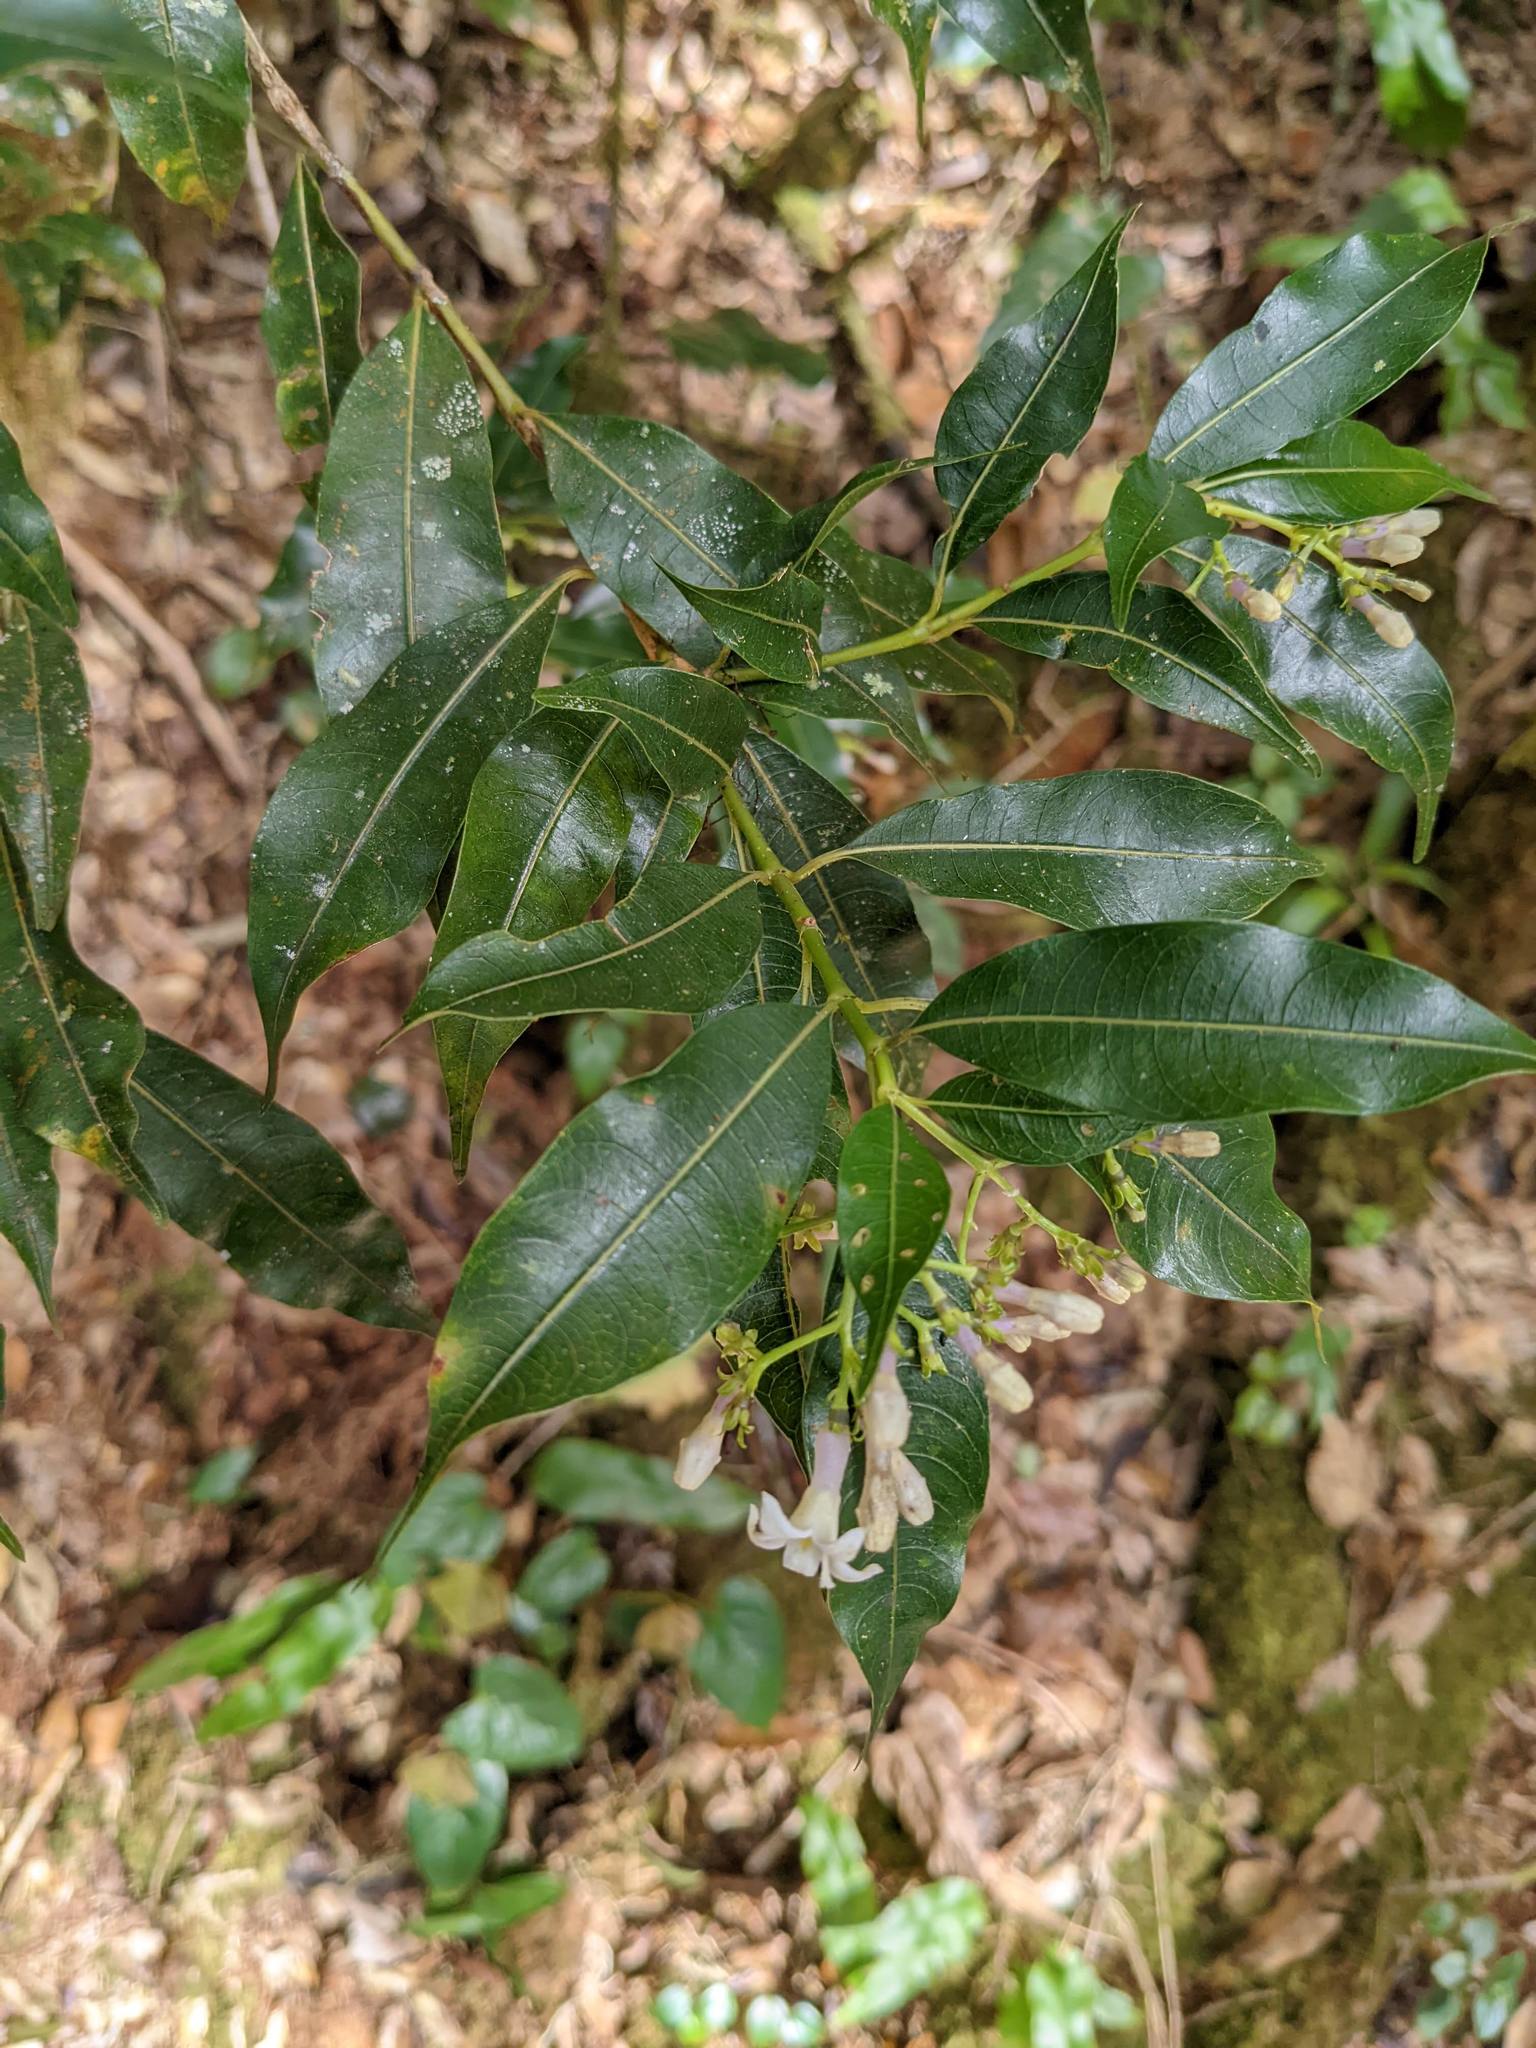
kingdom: Plantae
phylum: Tracheophyta
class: Magnoliopsida
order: Gentianales
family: Rubiaceae
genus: Palicourea
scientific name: Palicourea salicifolia
